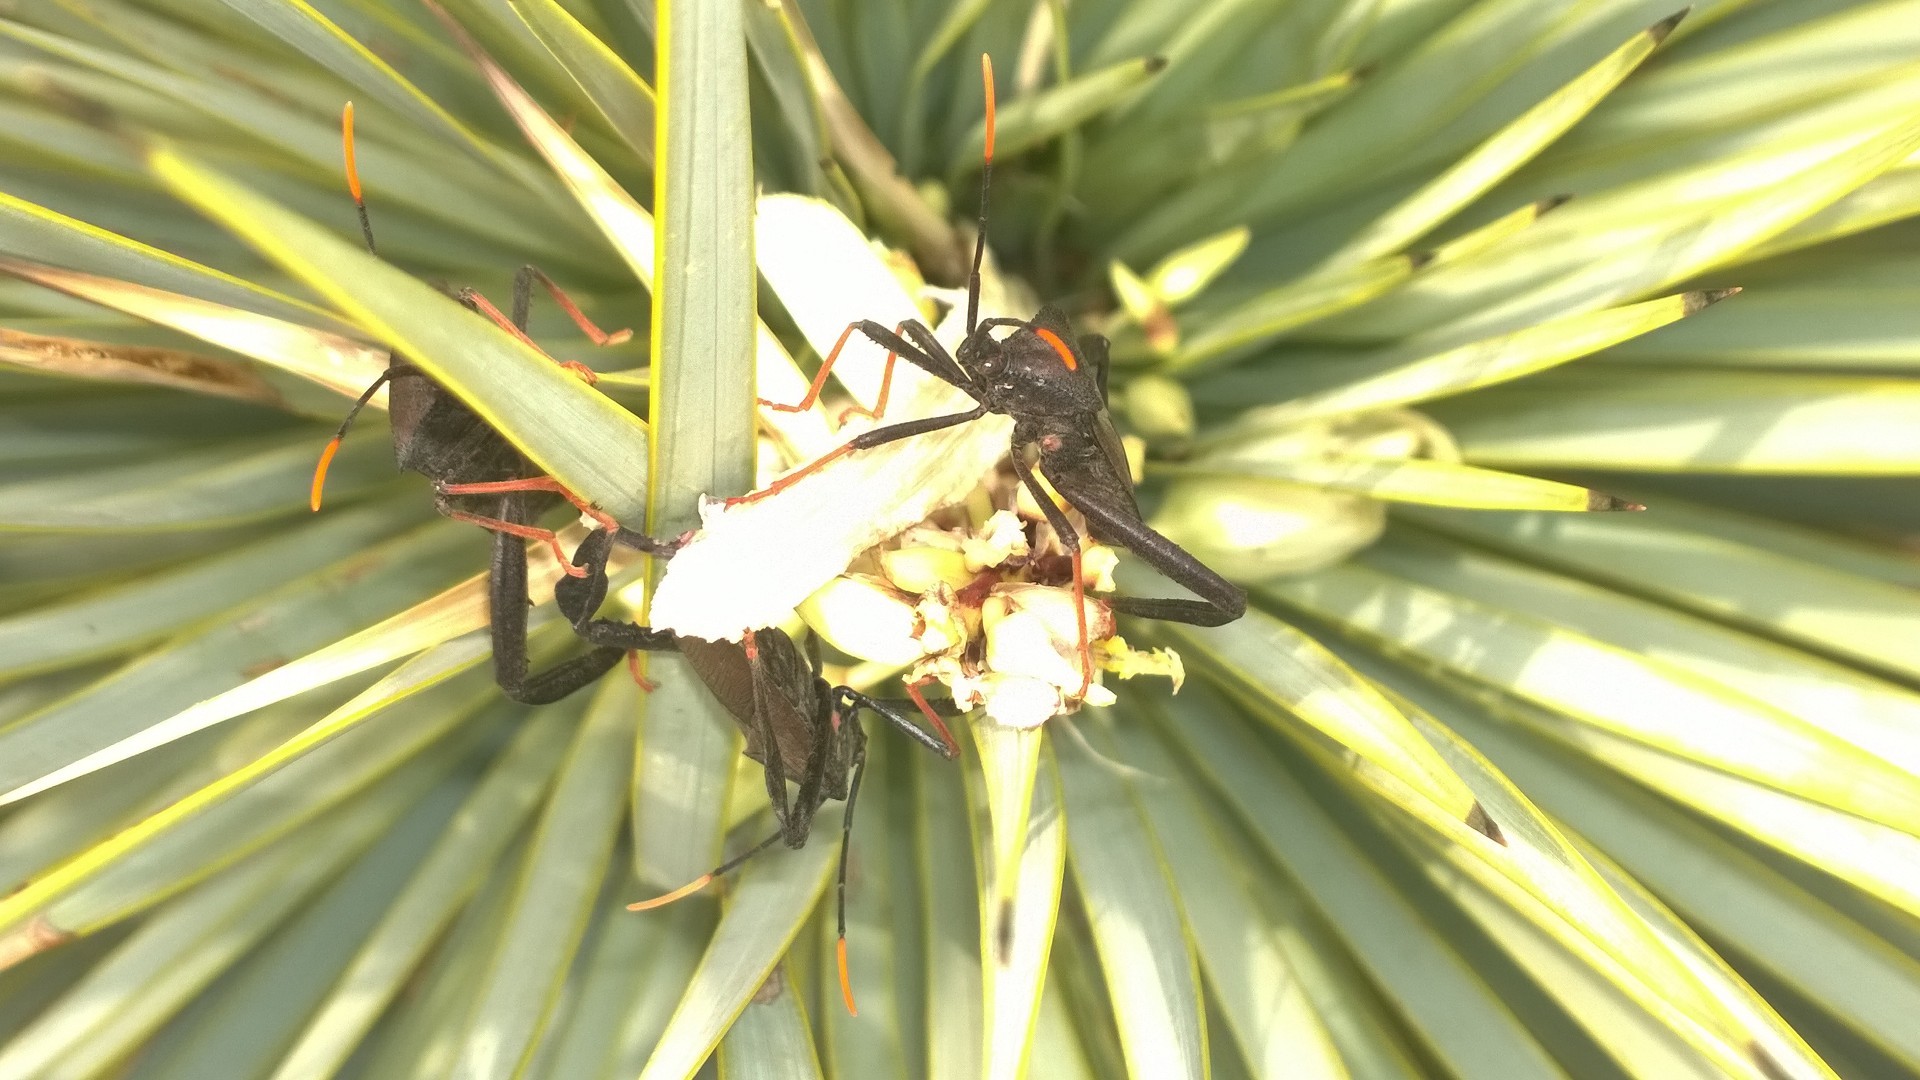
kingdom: Animalia
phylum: Arthropoda
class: Insecta
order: Hemiptera
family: Coreidae
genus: Acanthocephala
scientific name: Acanthocephala thomasi
